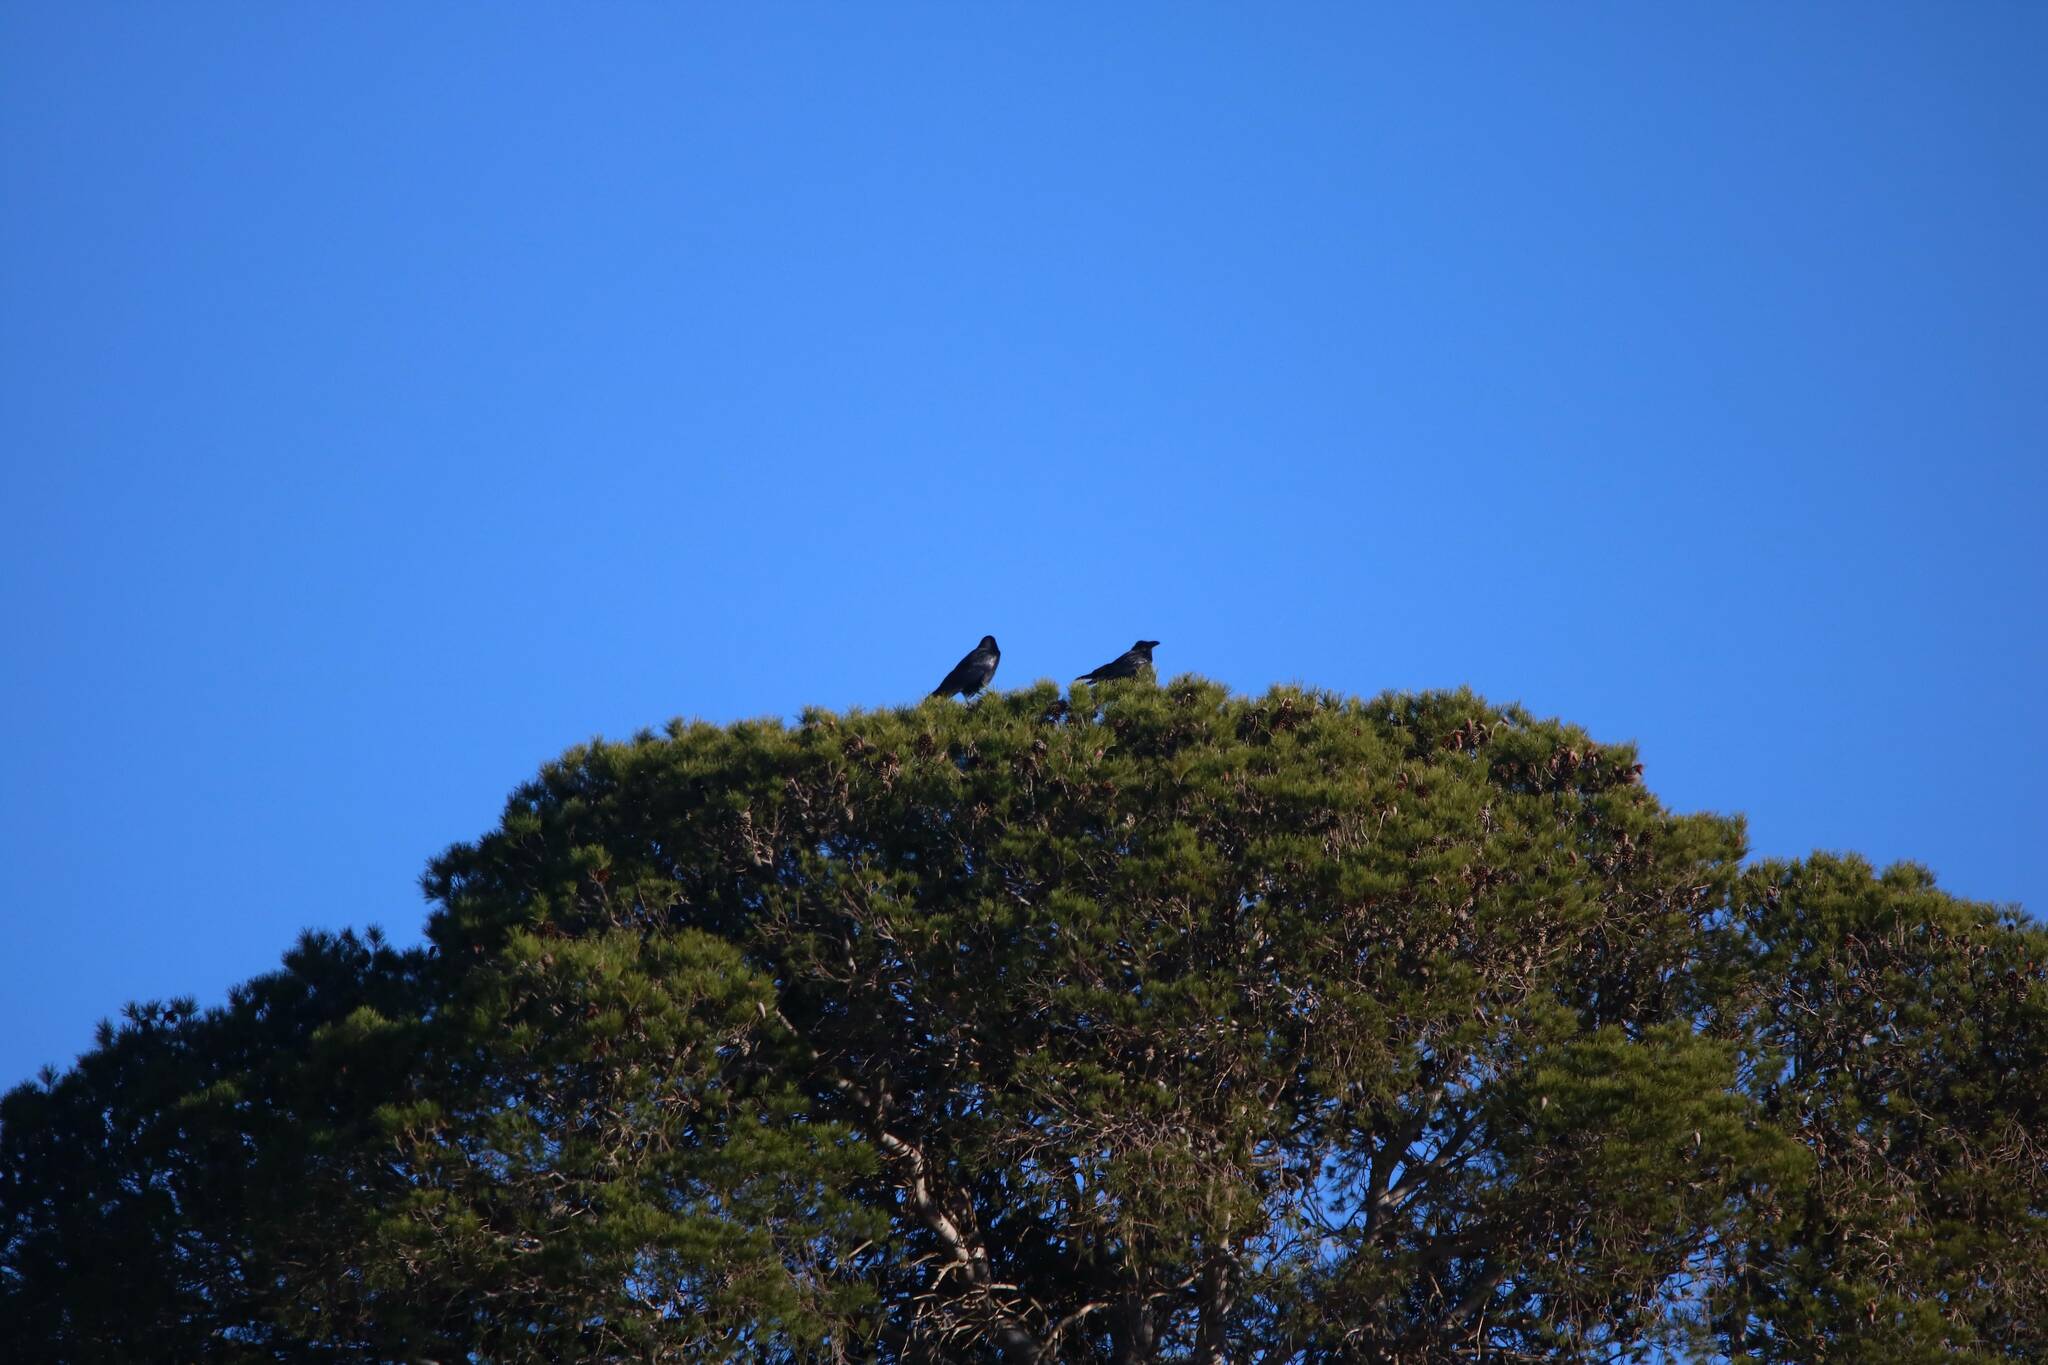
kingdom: Animalia
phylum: Chordata
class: Aves
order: Passeriformes
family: Corvidae
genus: Corvus
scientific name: Corvus corax
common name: Common raven
